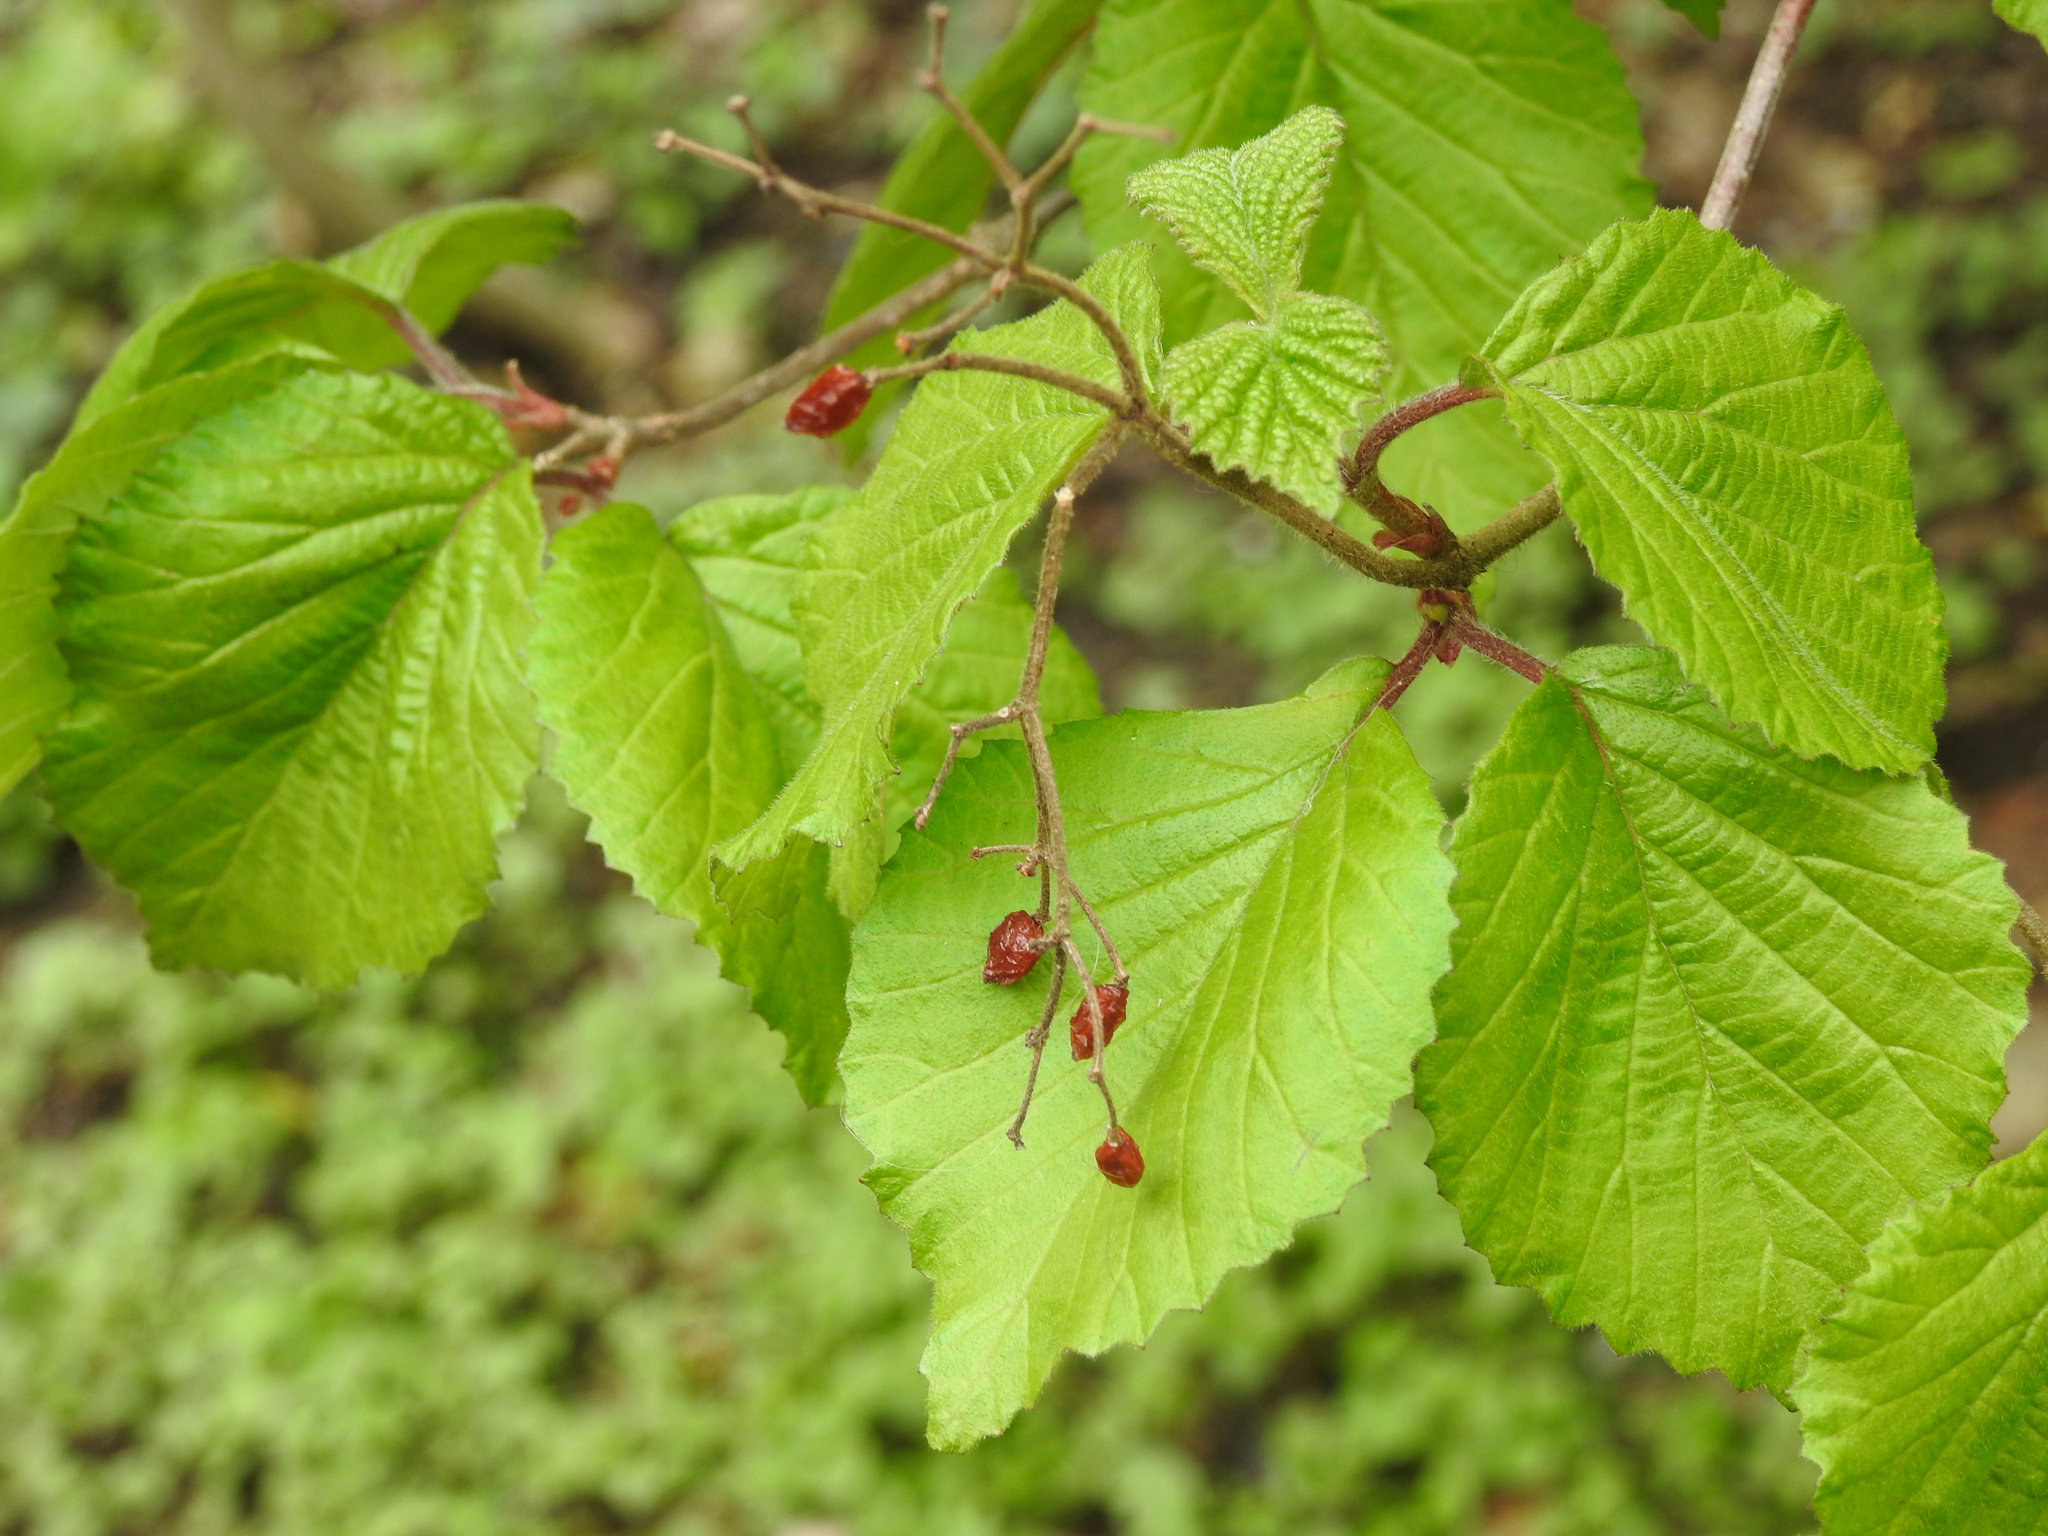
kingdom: Plantae
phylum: Tracheophyta
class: Magnoliopsida
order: Dipsacales
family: Viburnaceae
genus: Viburnum
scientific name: Viburnum dilatatum
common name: Linden arrowwood
